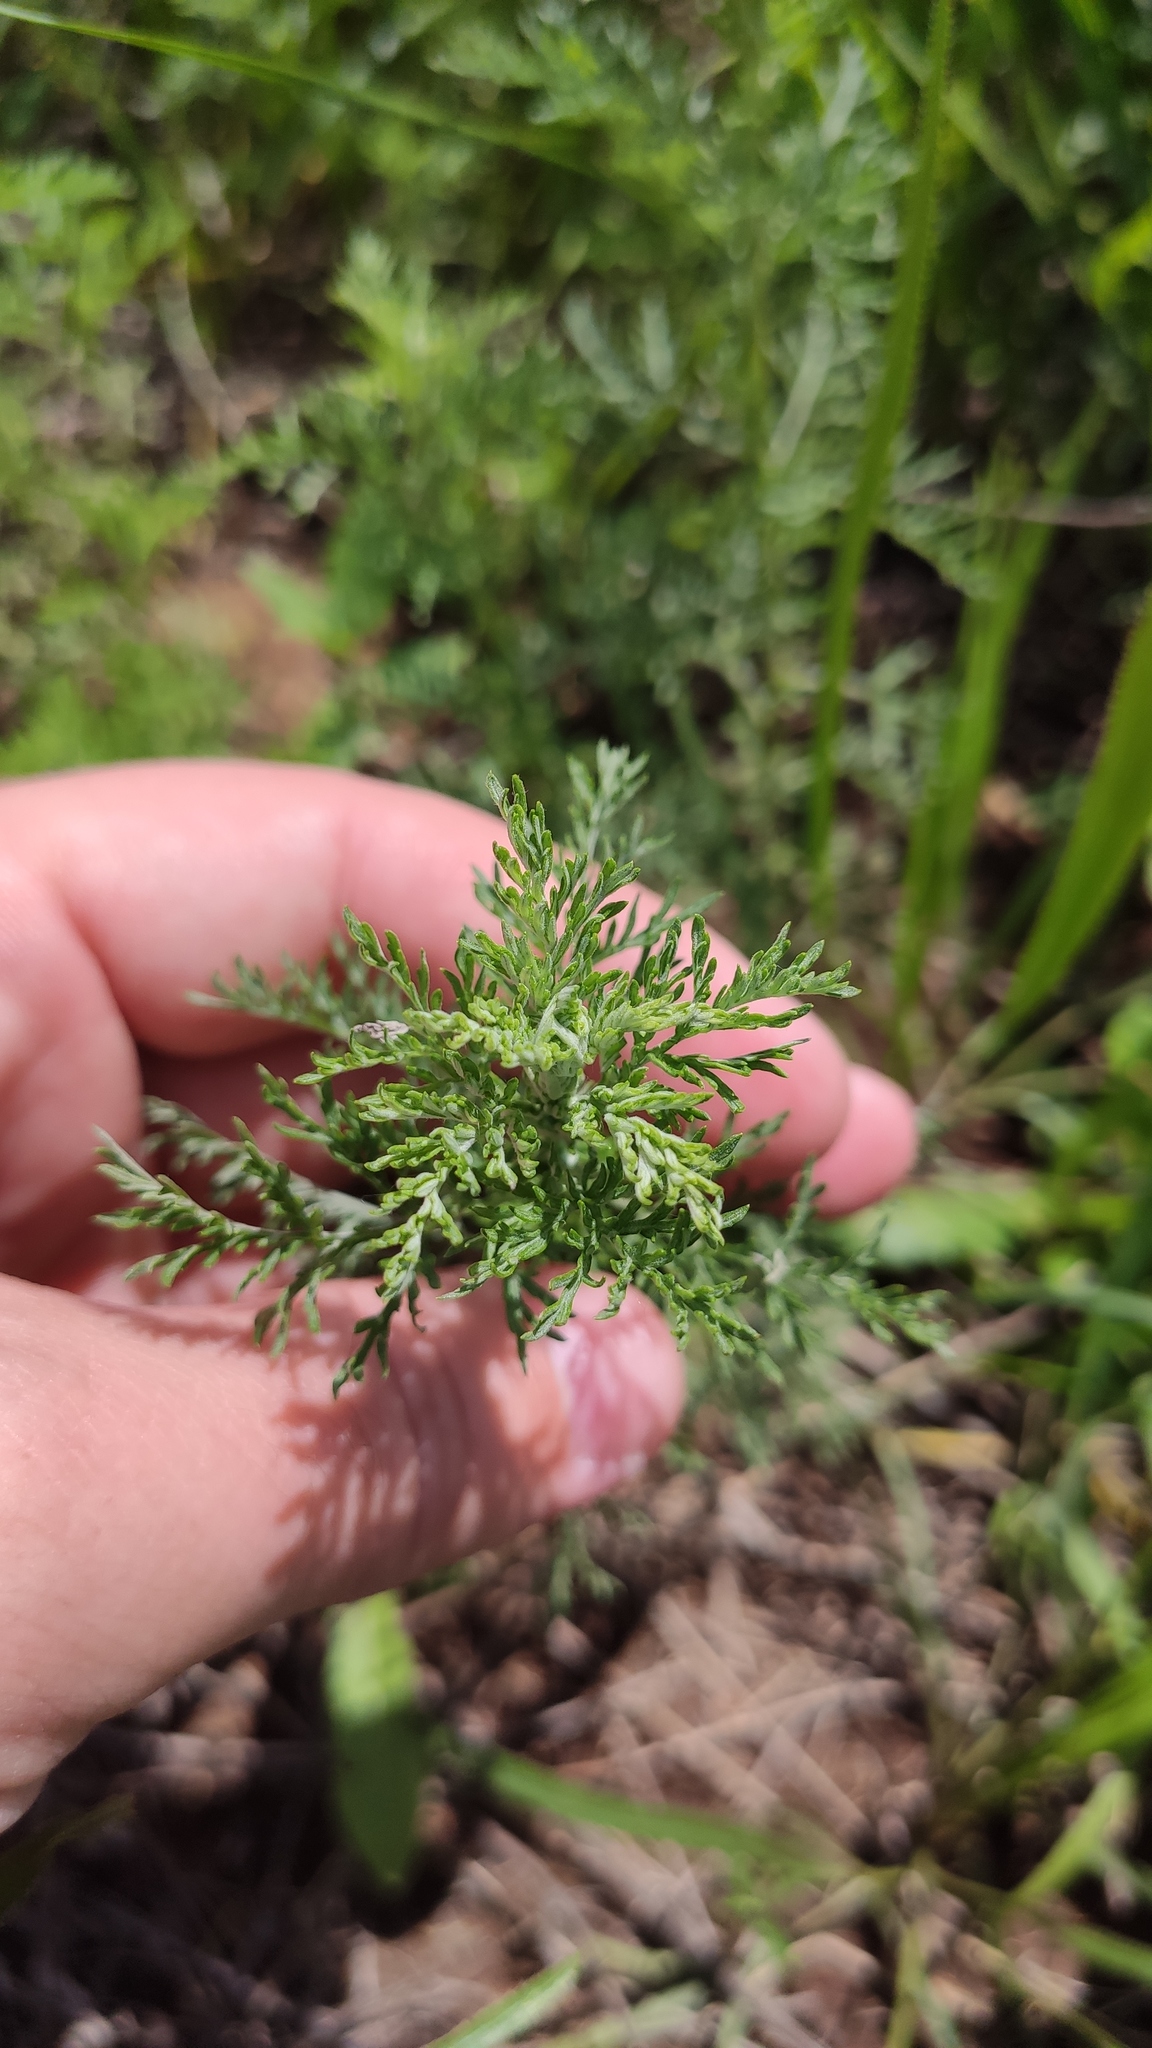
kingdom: Plantae
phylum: Tracheophyta
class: Magnoliopsida
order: Asterales
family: Asteraceae
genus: Achillea
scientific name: Achillea nobilis
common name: Noble yarrow
